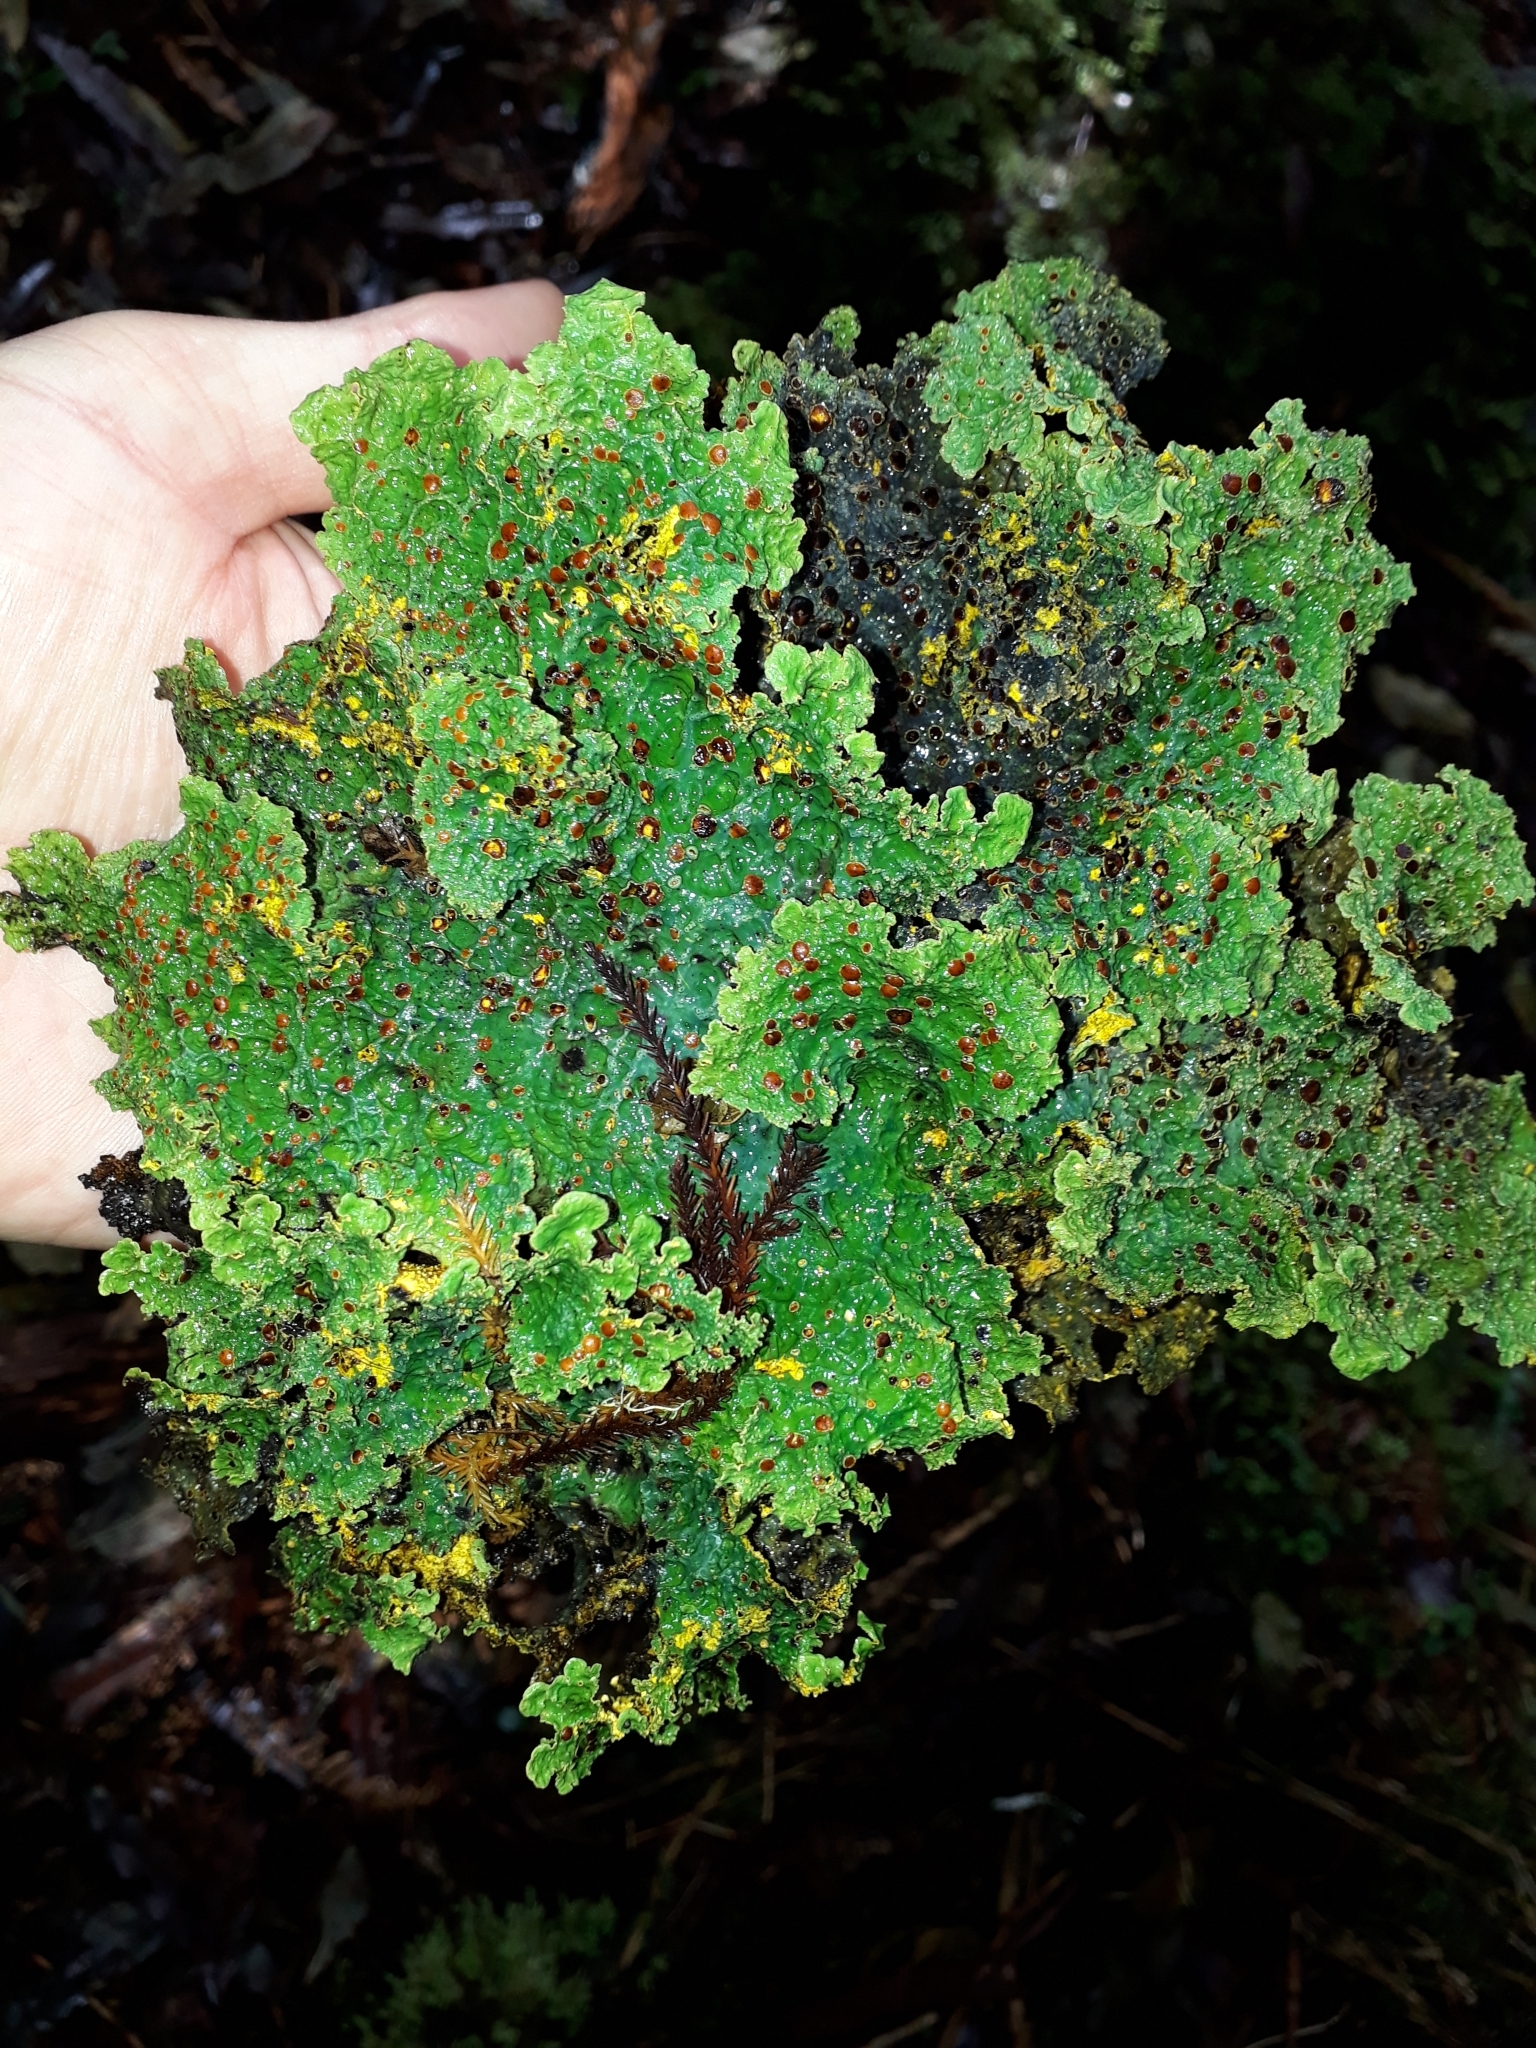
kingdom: Fungi
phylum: Ascomycota
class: Lecanoromycetes
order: Peltigerales
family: Lobariaceae
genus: Yarrumia
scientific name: Yarrumia coronata
